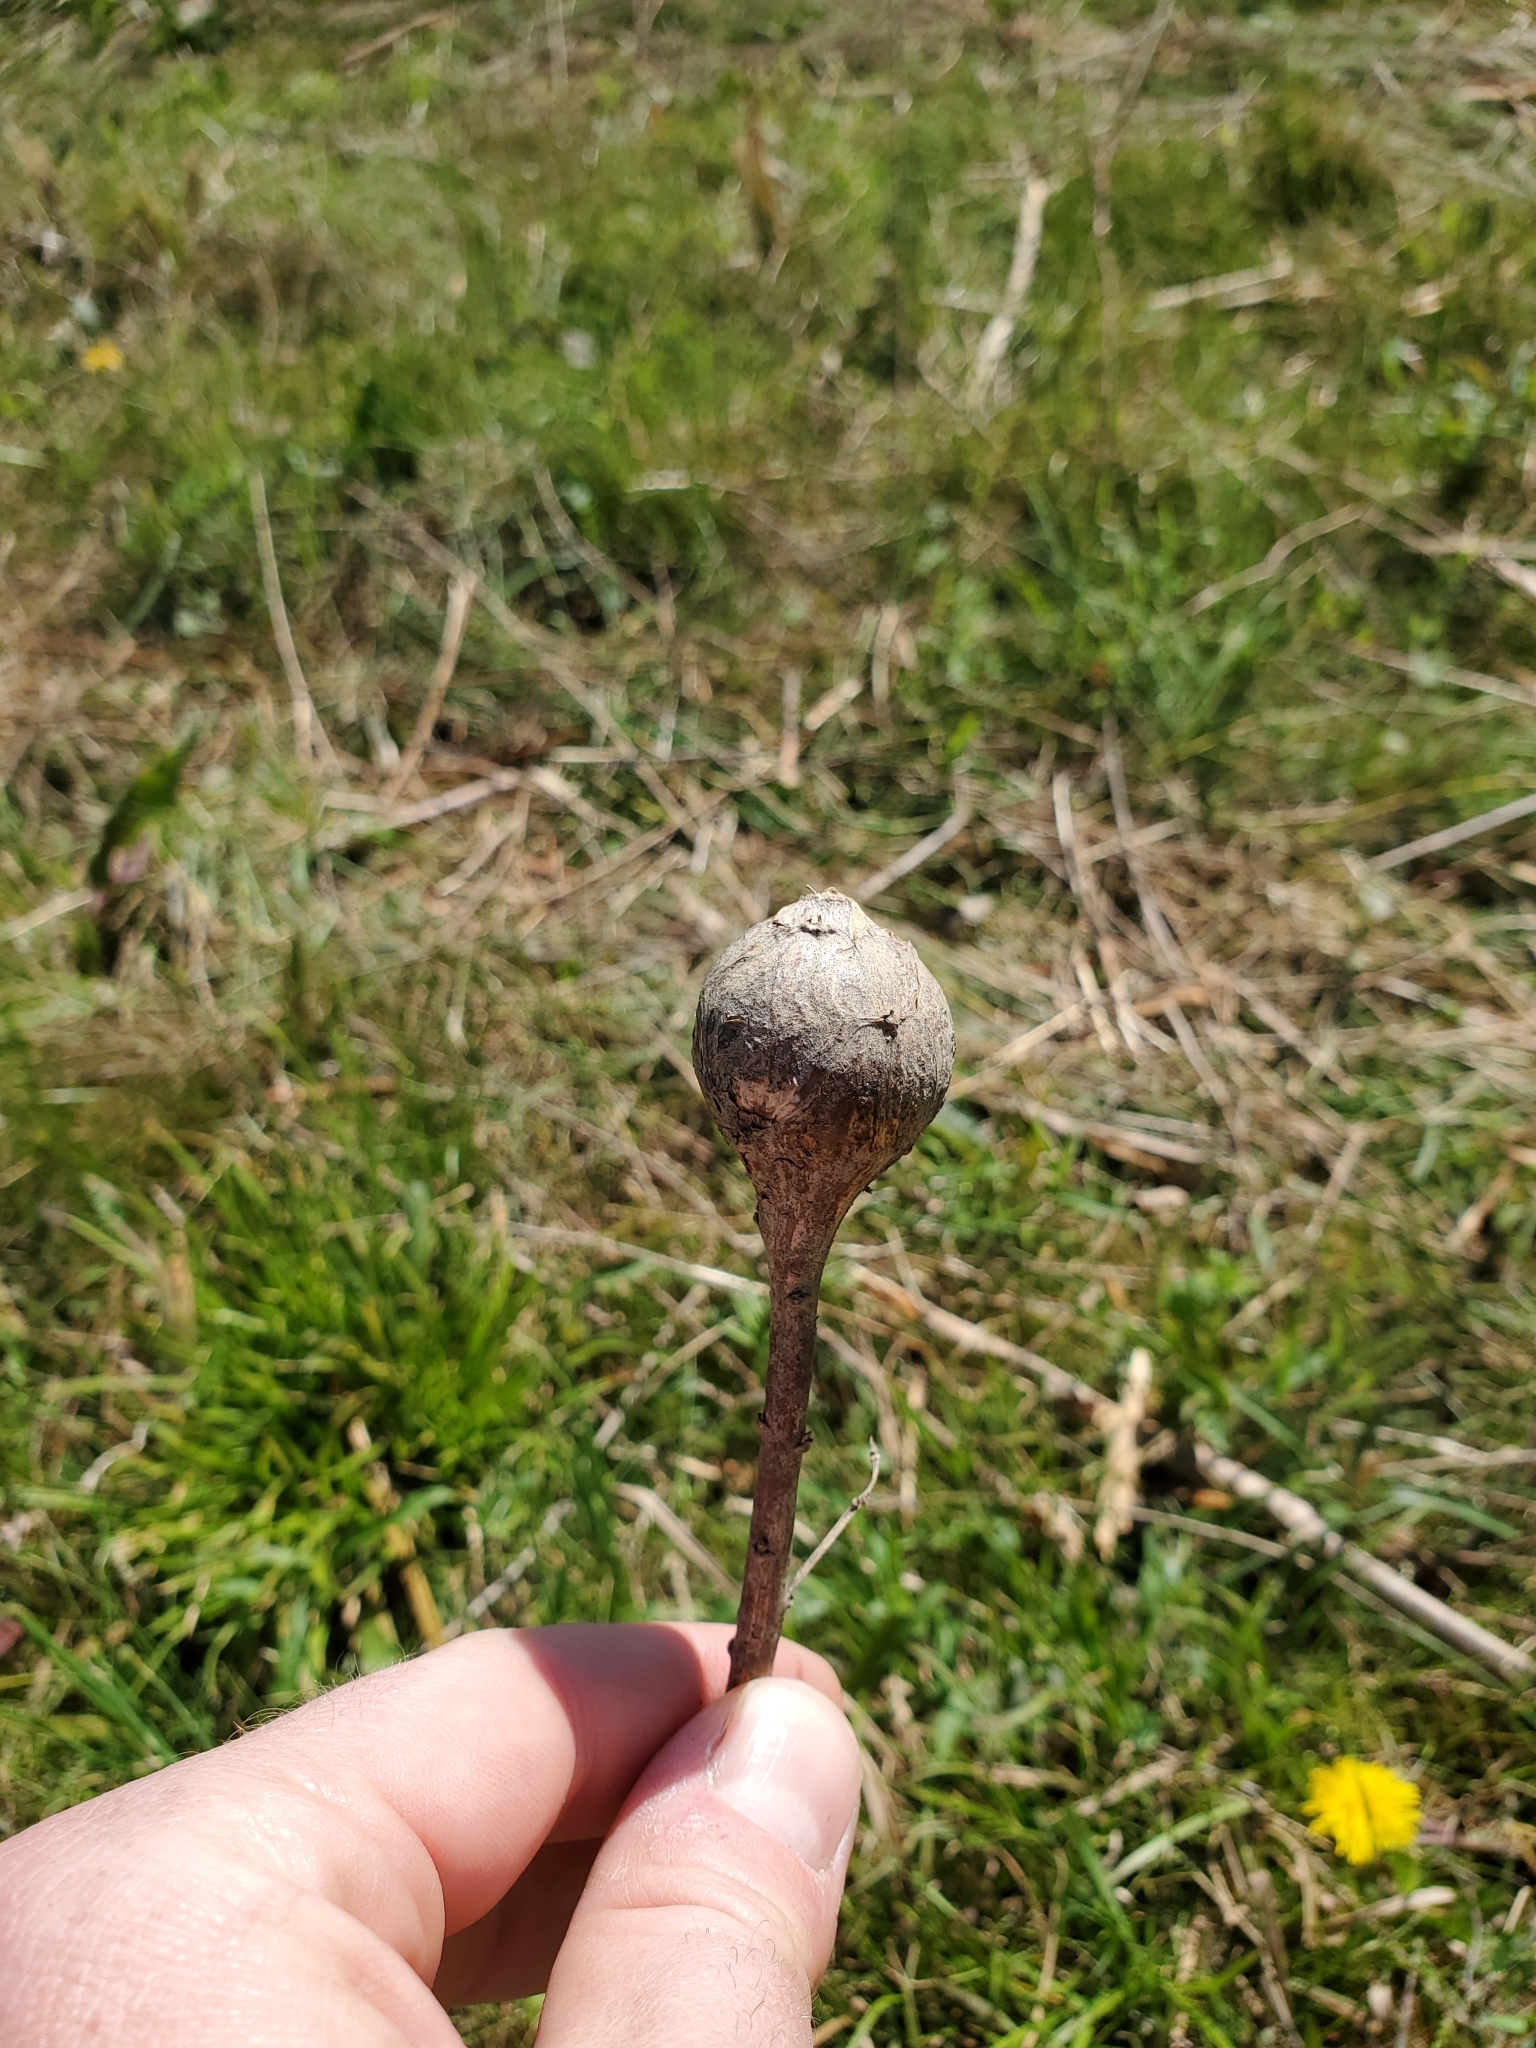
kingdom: Animalia
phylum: Arthropoda
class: Insecta
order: Diptera
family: Tephritidae
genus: Eurosta
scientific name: Eurosta solidaginis
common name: Goldenrod gall fly
